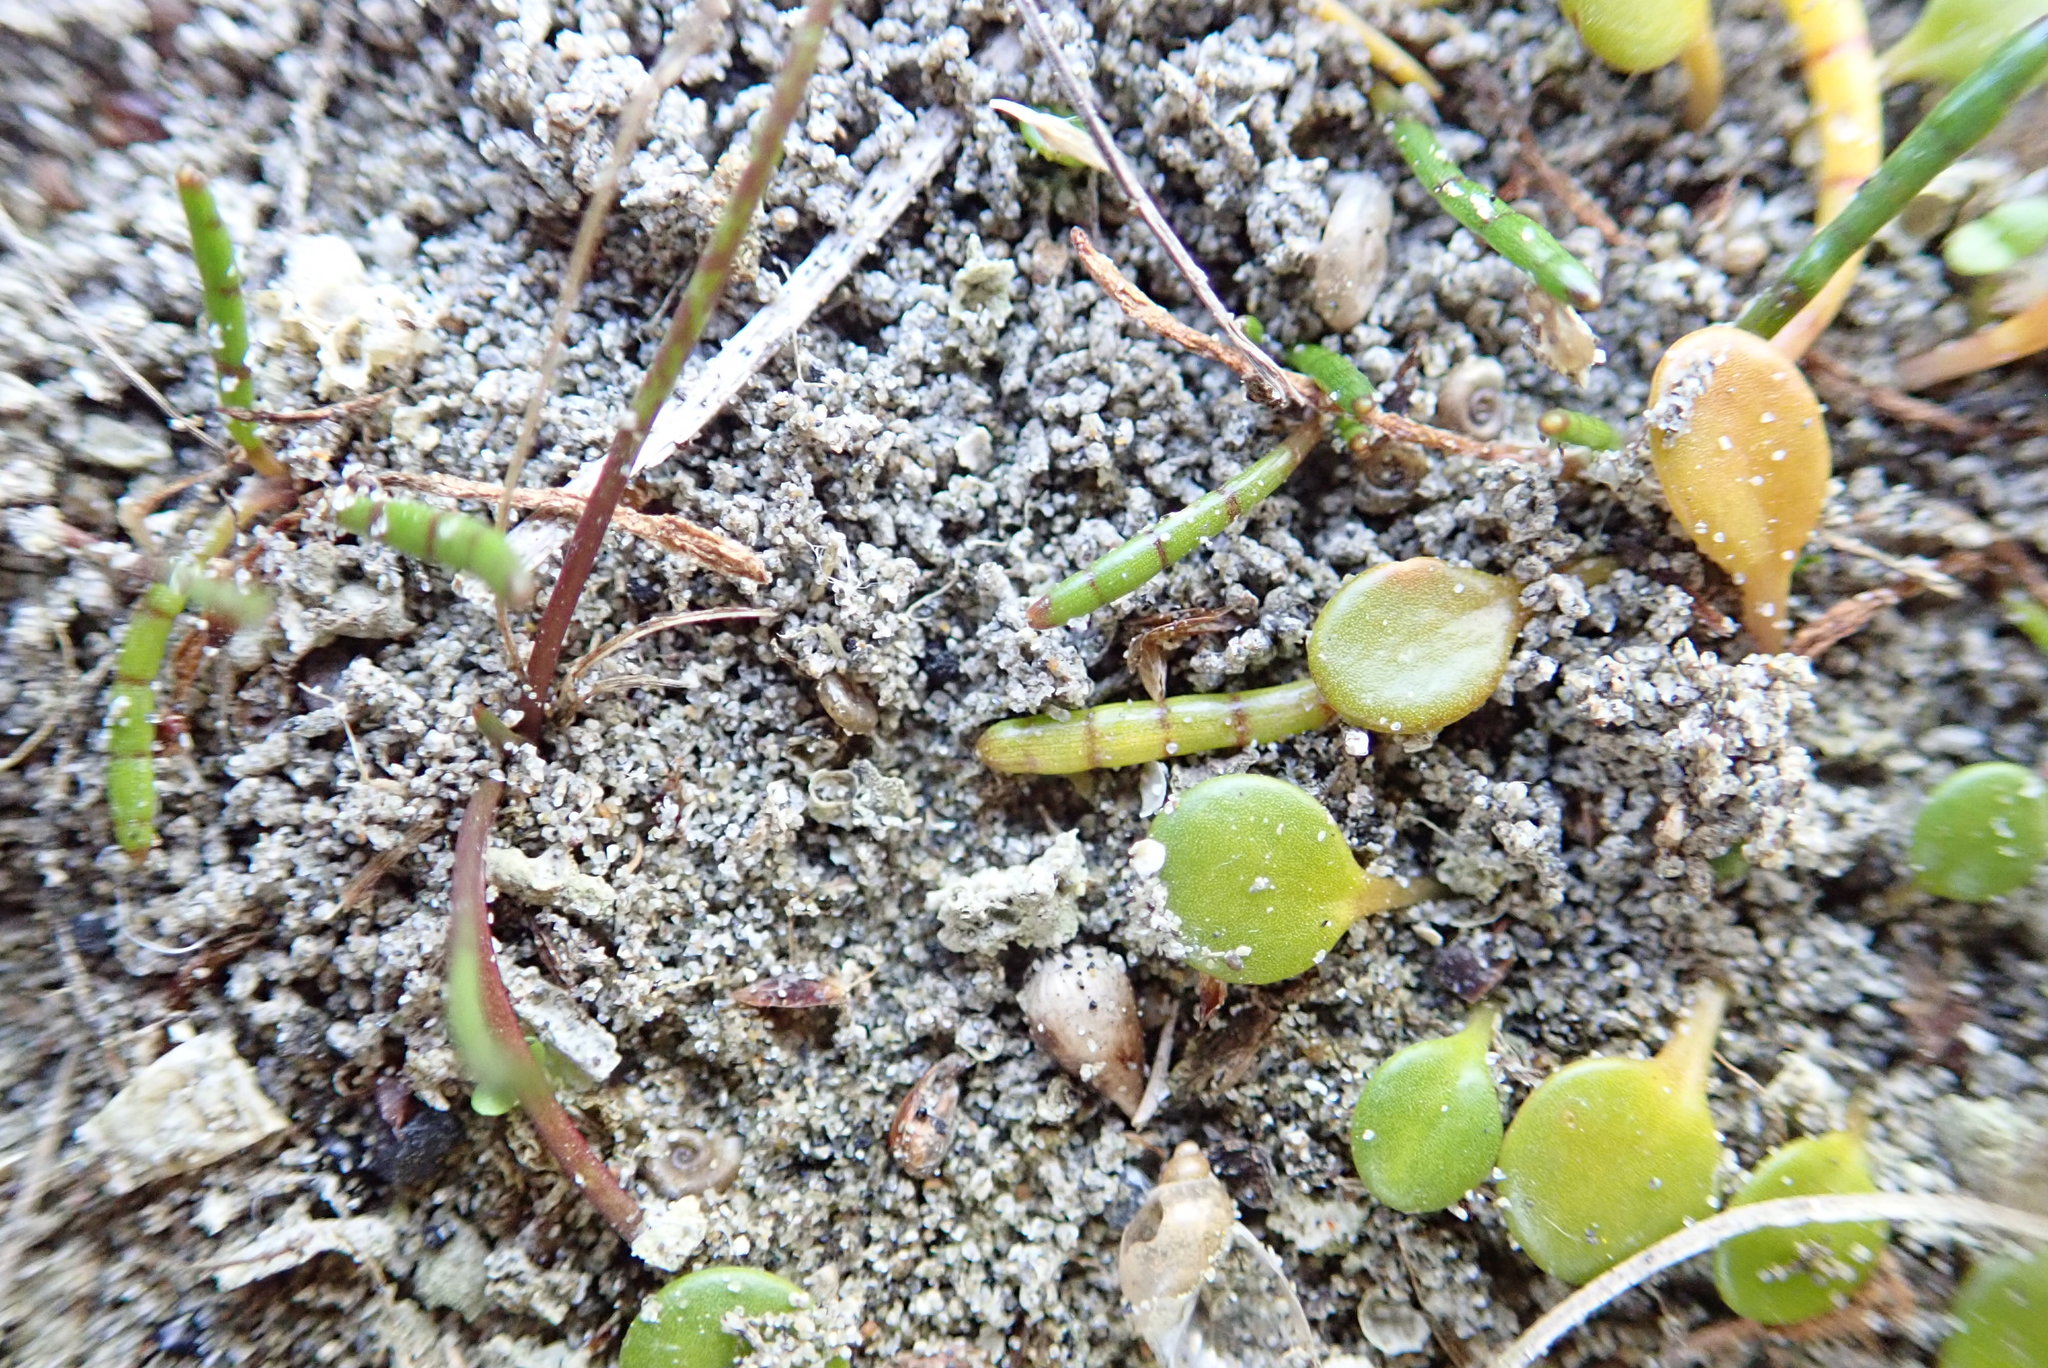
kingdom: Plantae
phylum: Tracheophyta
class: Magnoliopsida
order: Apiales
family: Apiaceae
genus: Lilaeopsis
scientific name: Lilaeopsis novae-zelandiae
